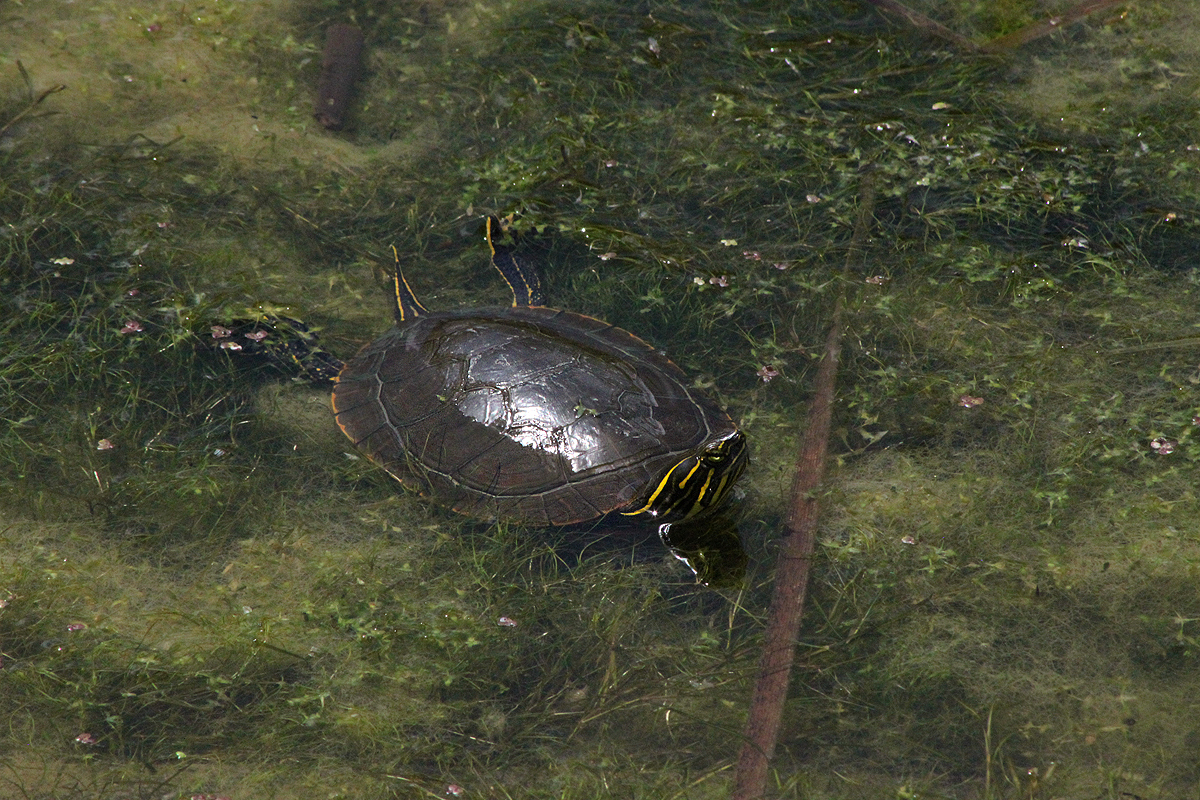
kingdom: Animalia
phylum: Chordata
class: Testudines
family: Emydidae
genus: Chrysemys
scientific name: Chrysemys picta
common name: Painted turtle
